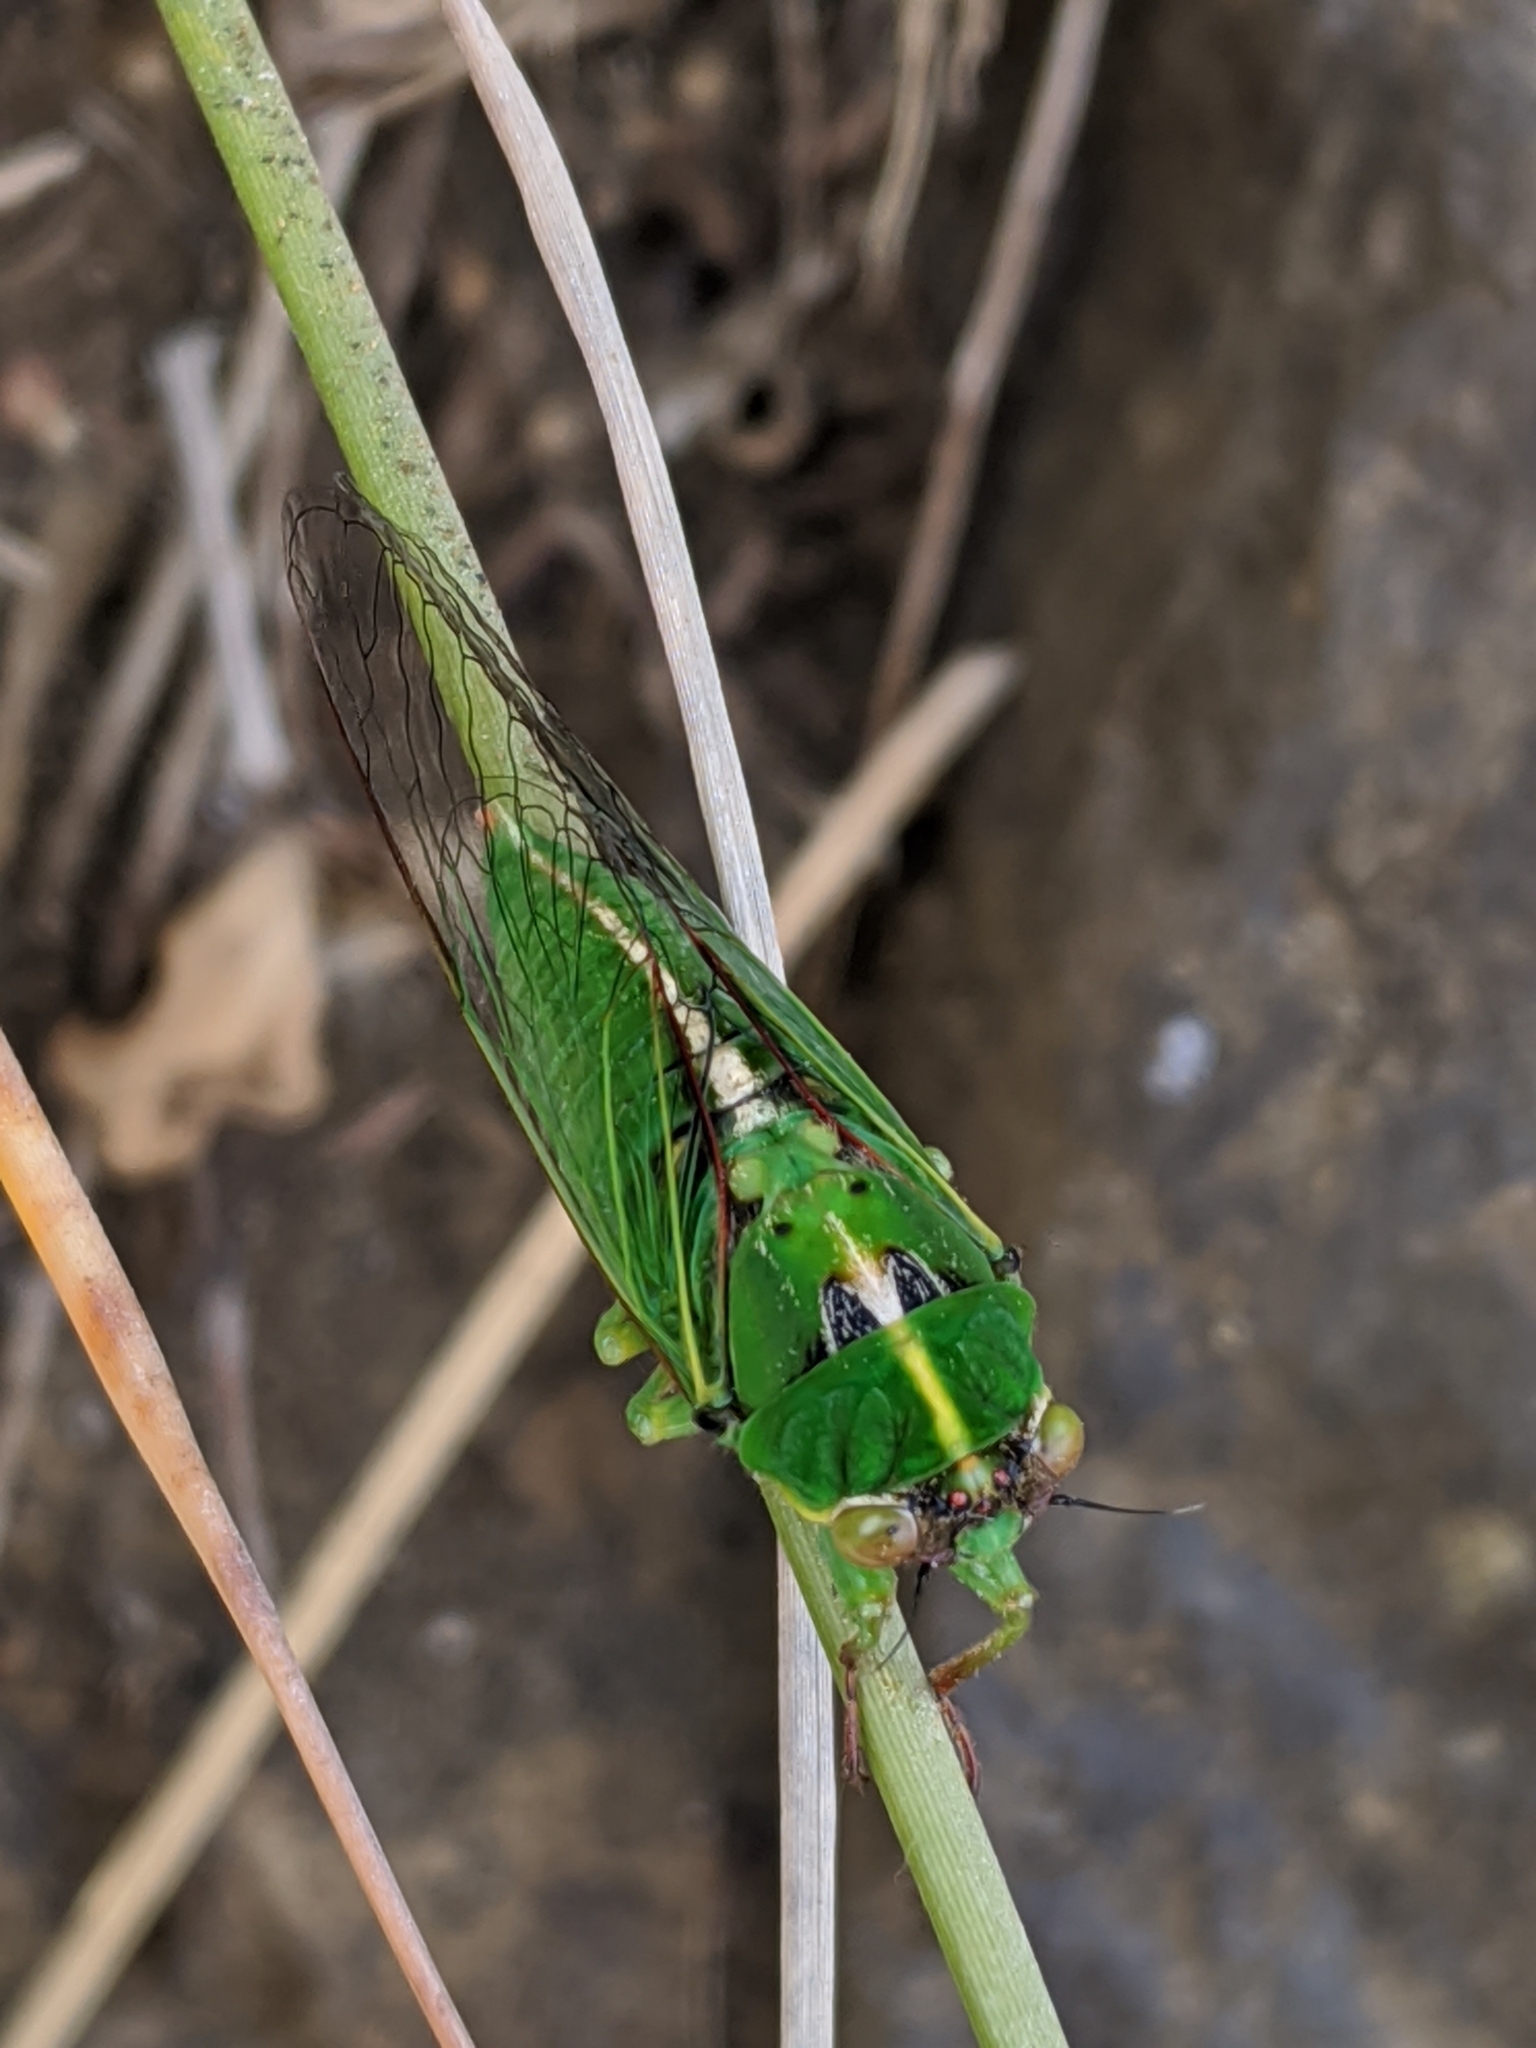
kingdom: Animalia
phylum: Arthropoda
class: Insecta
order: Hemiptera
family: Cicadidae
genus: Kikihia
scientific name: Kikihia cutora
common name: Northern snoring cicada
